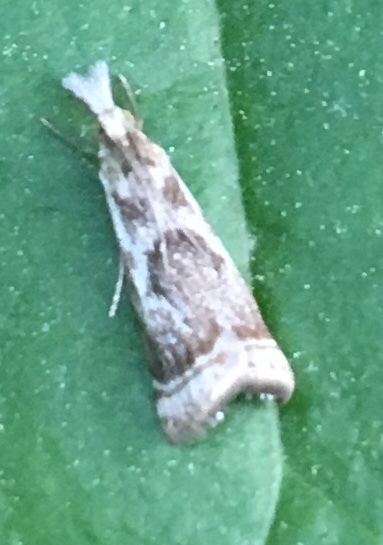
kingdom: Animalia
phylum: Arthropoda
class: Insecta
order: Lepidoptera
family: Crambidae
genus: Microcrambus
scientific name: Microcrambus elegans
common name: Elegant grass-veneer
